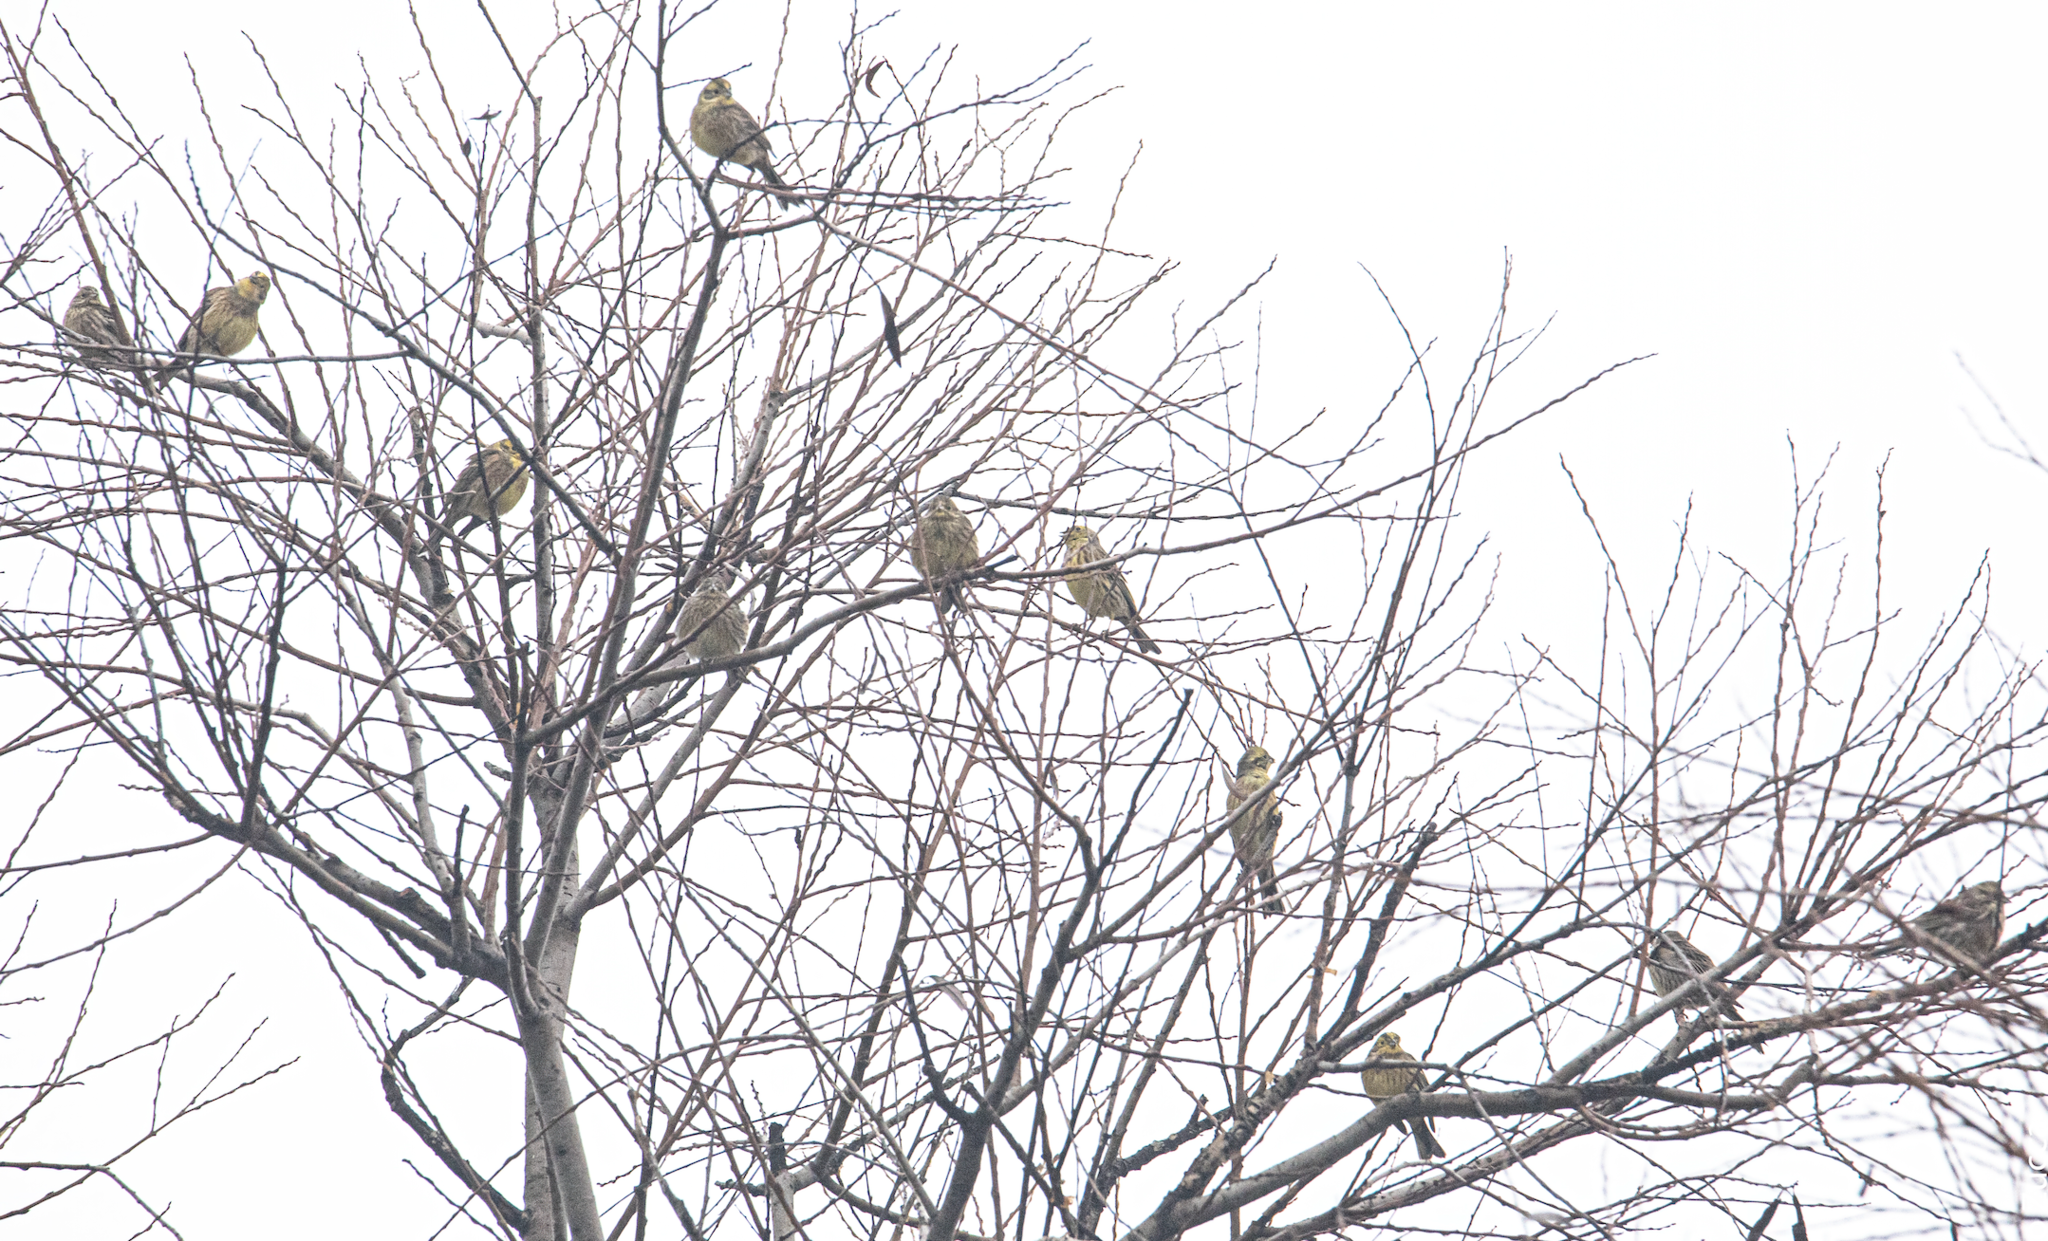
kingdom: Animalia
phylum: Chordata
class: Aves
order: Passeriformes
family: Emberizidae
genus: Emberiza
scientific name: Emberiza citrinella
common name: Yellowhammer
